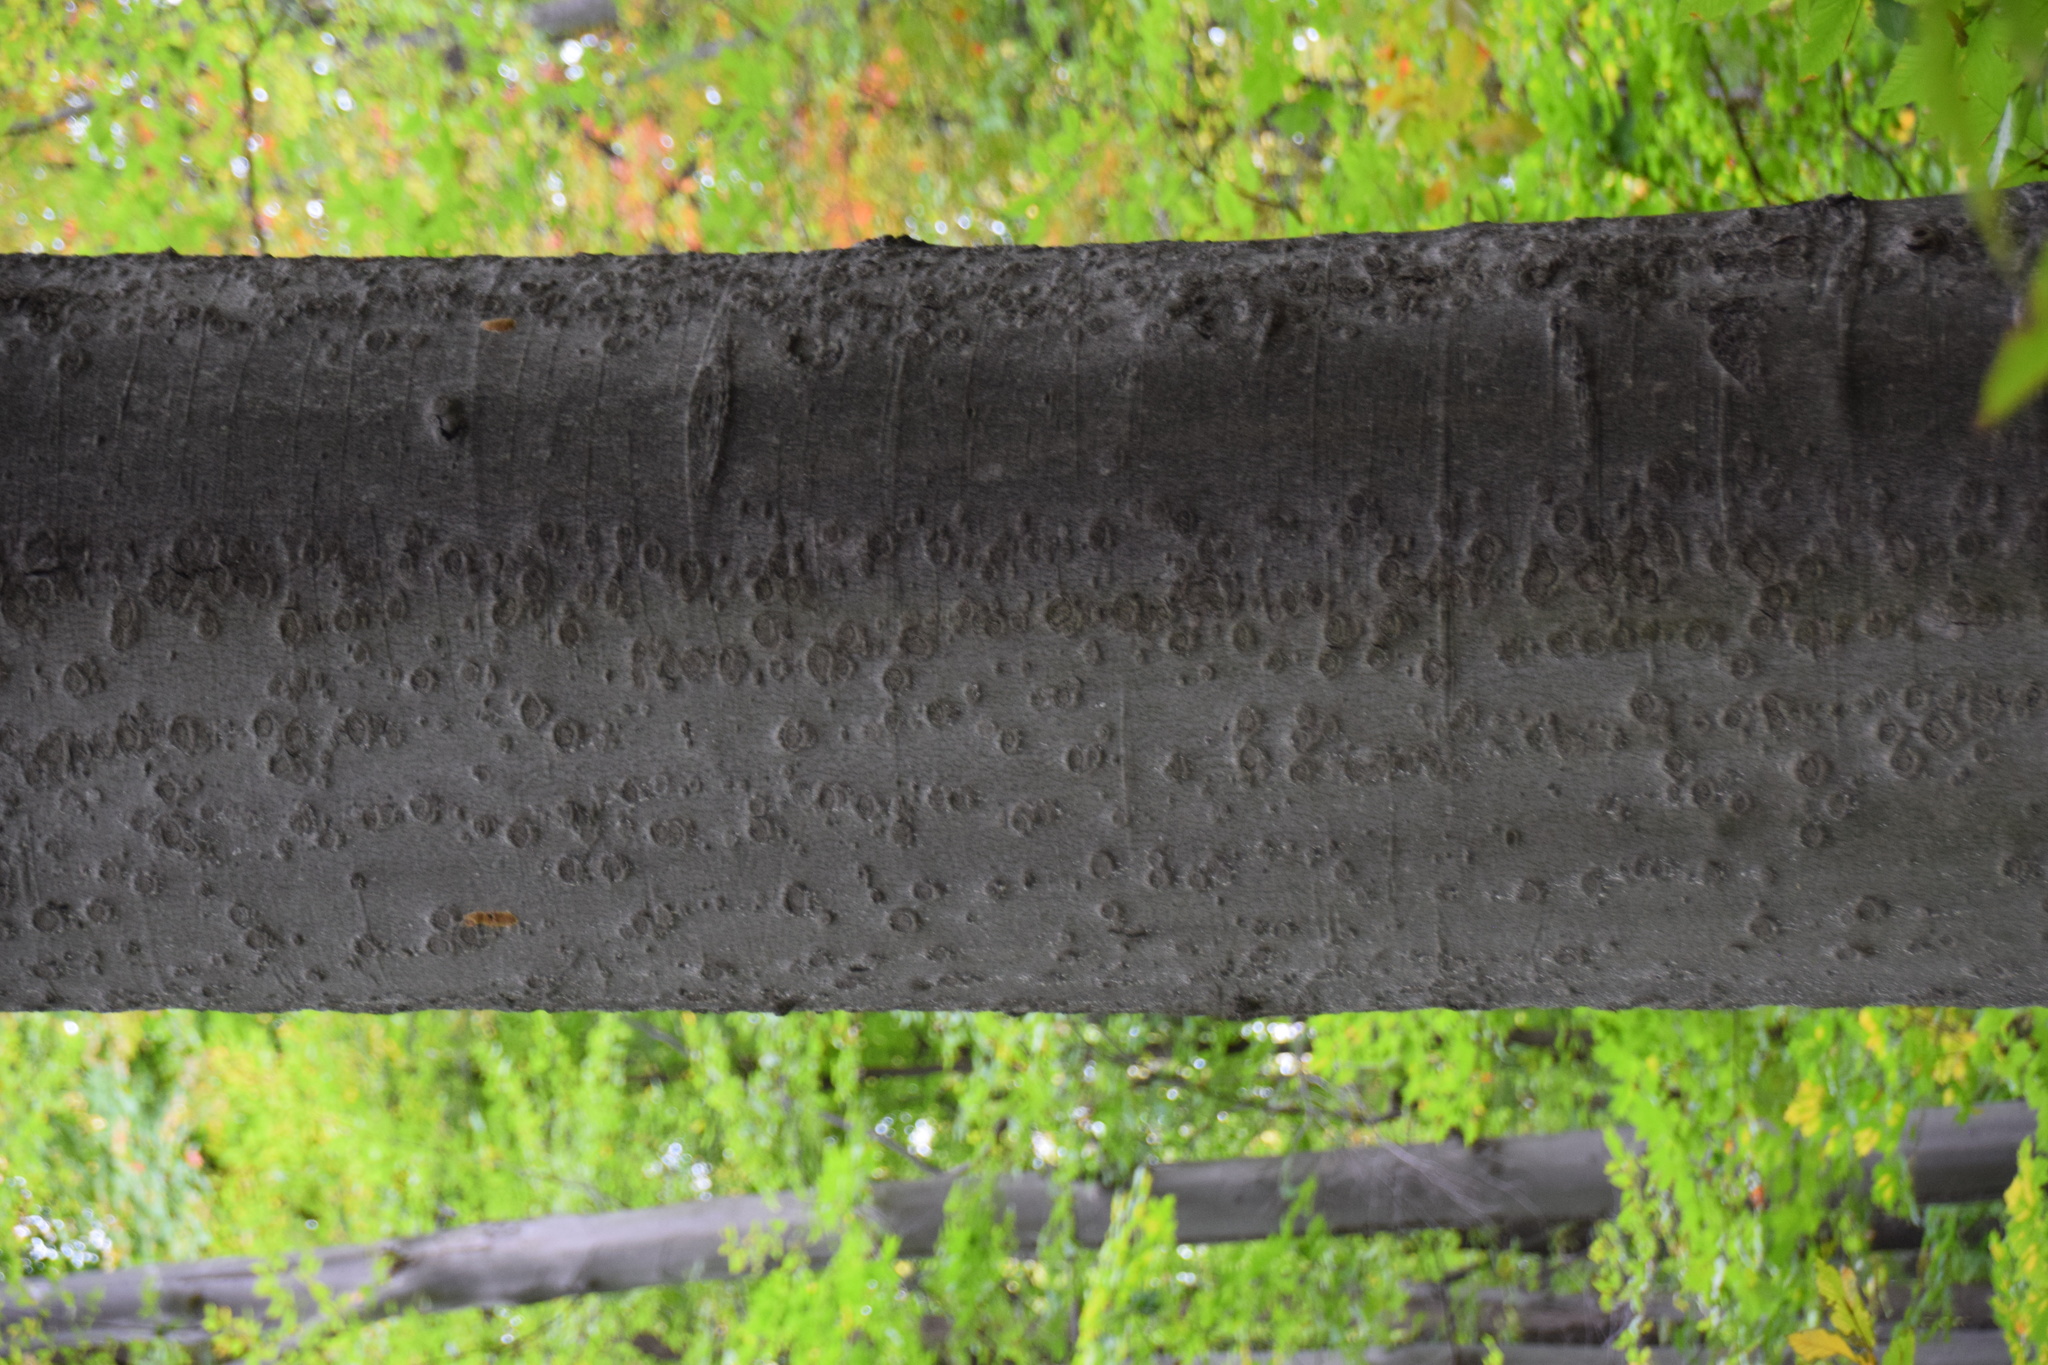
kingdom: Plantae
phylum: Tracheophyta
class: Magnoliopsida
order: Fagales
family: Fagaceae
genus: Fagus
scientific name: Fagus grandifolia
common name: American beech
